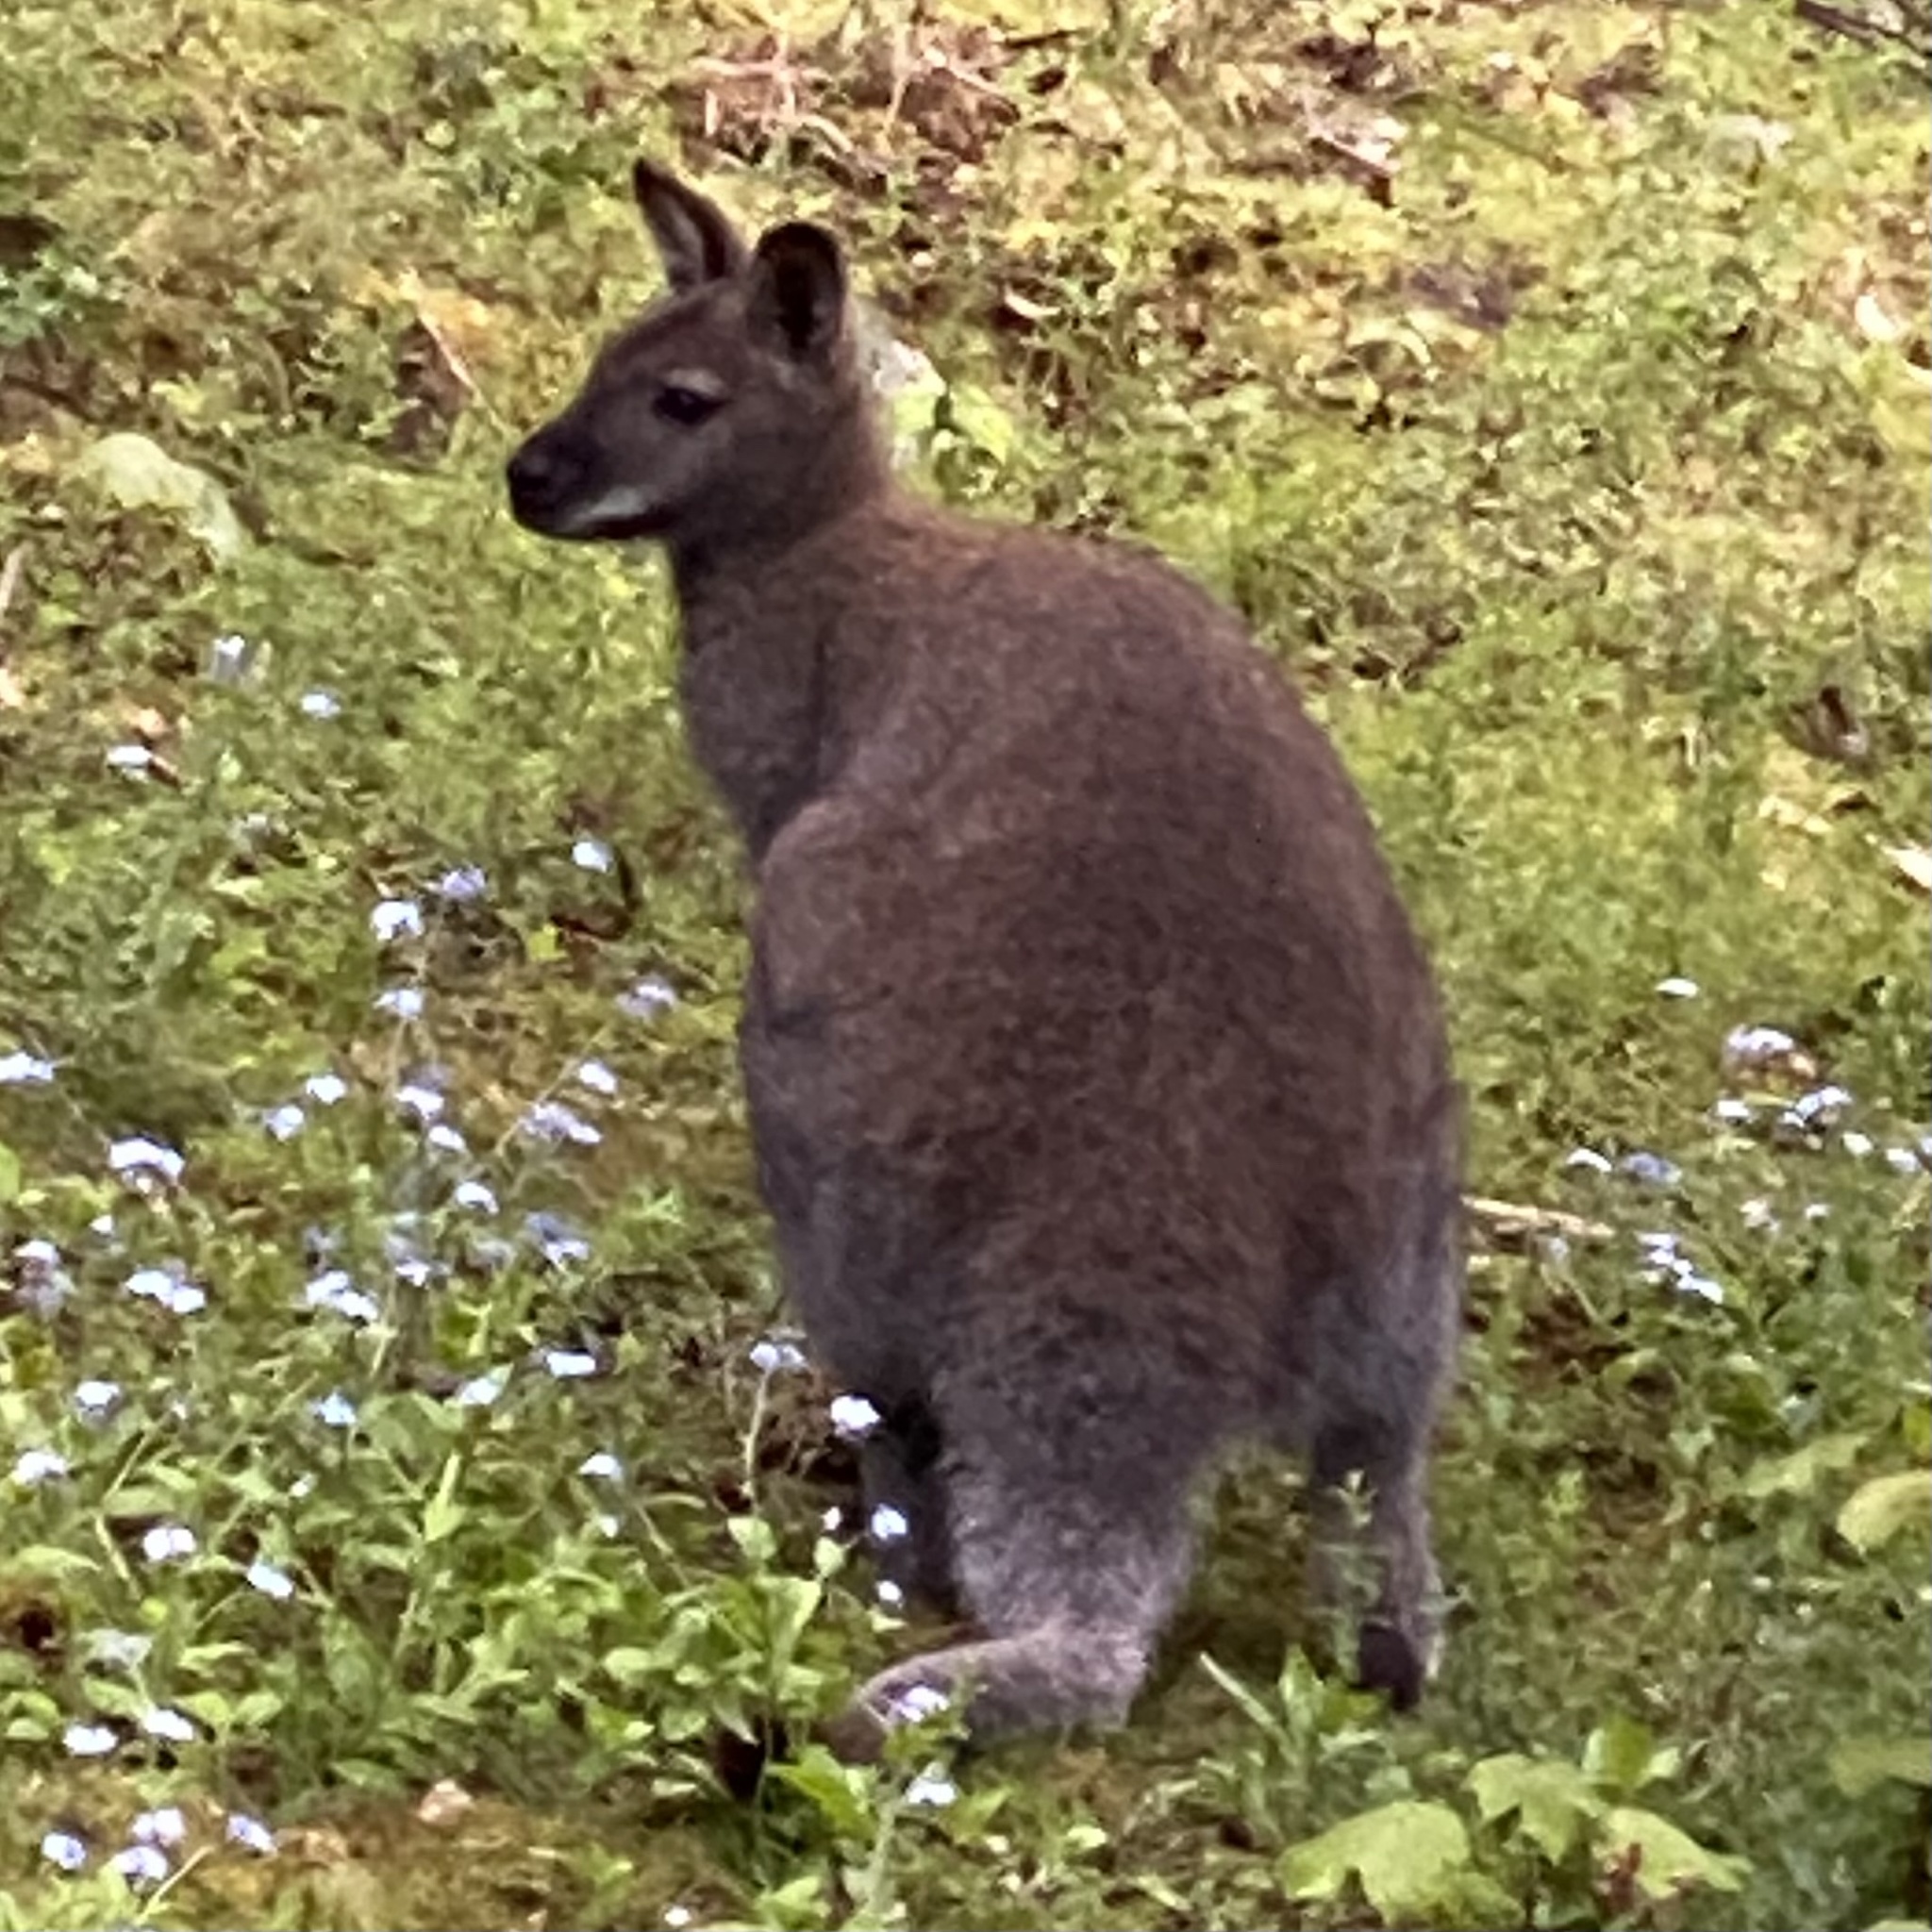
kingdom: Animalia
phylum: Chordata
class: Mammalia
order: Diprotodontia
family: Macropodidae
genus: Notamacropus
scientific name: Notamacropus rufogriseus
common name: Red-necked wallaby
